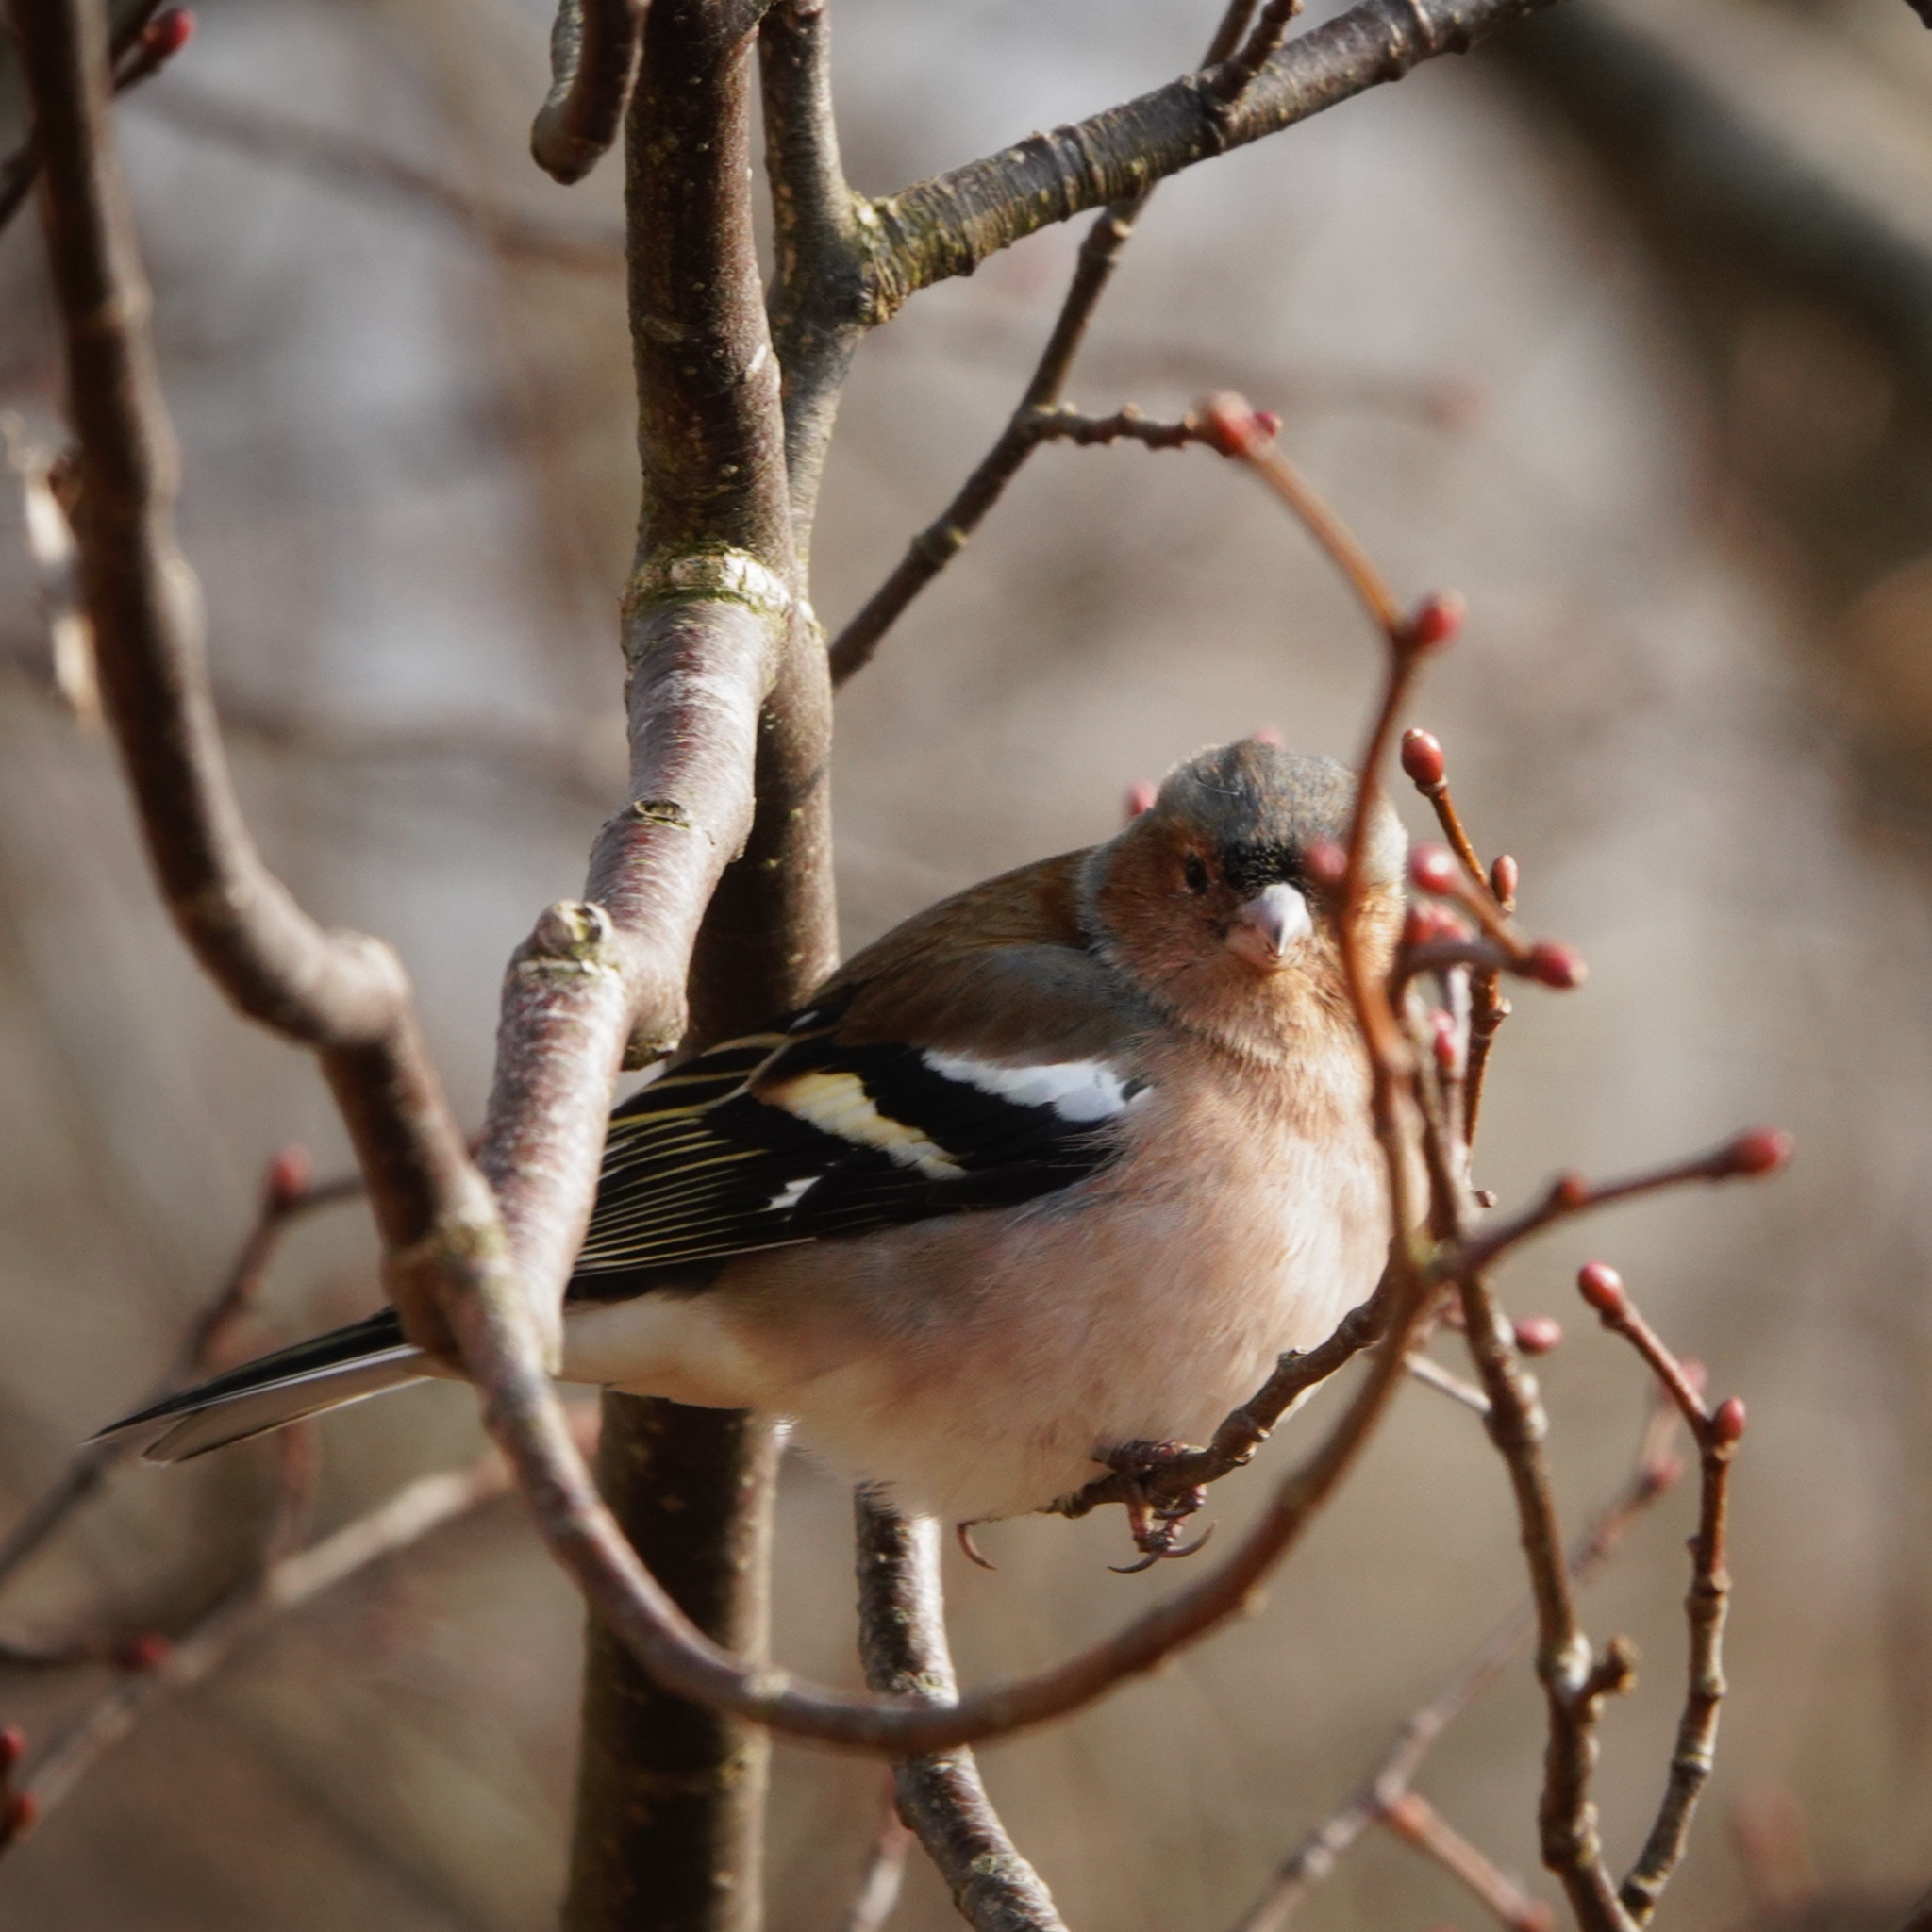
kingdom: Animalia
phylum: Chordata
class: Aves
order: Passeriformes
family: Fringillidae
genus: Fringilla
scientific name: Fringilla coelebs
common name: Common chaffinch
